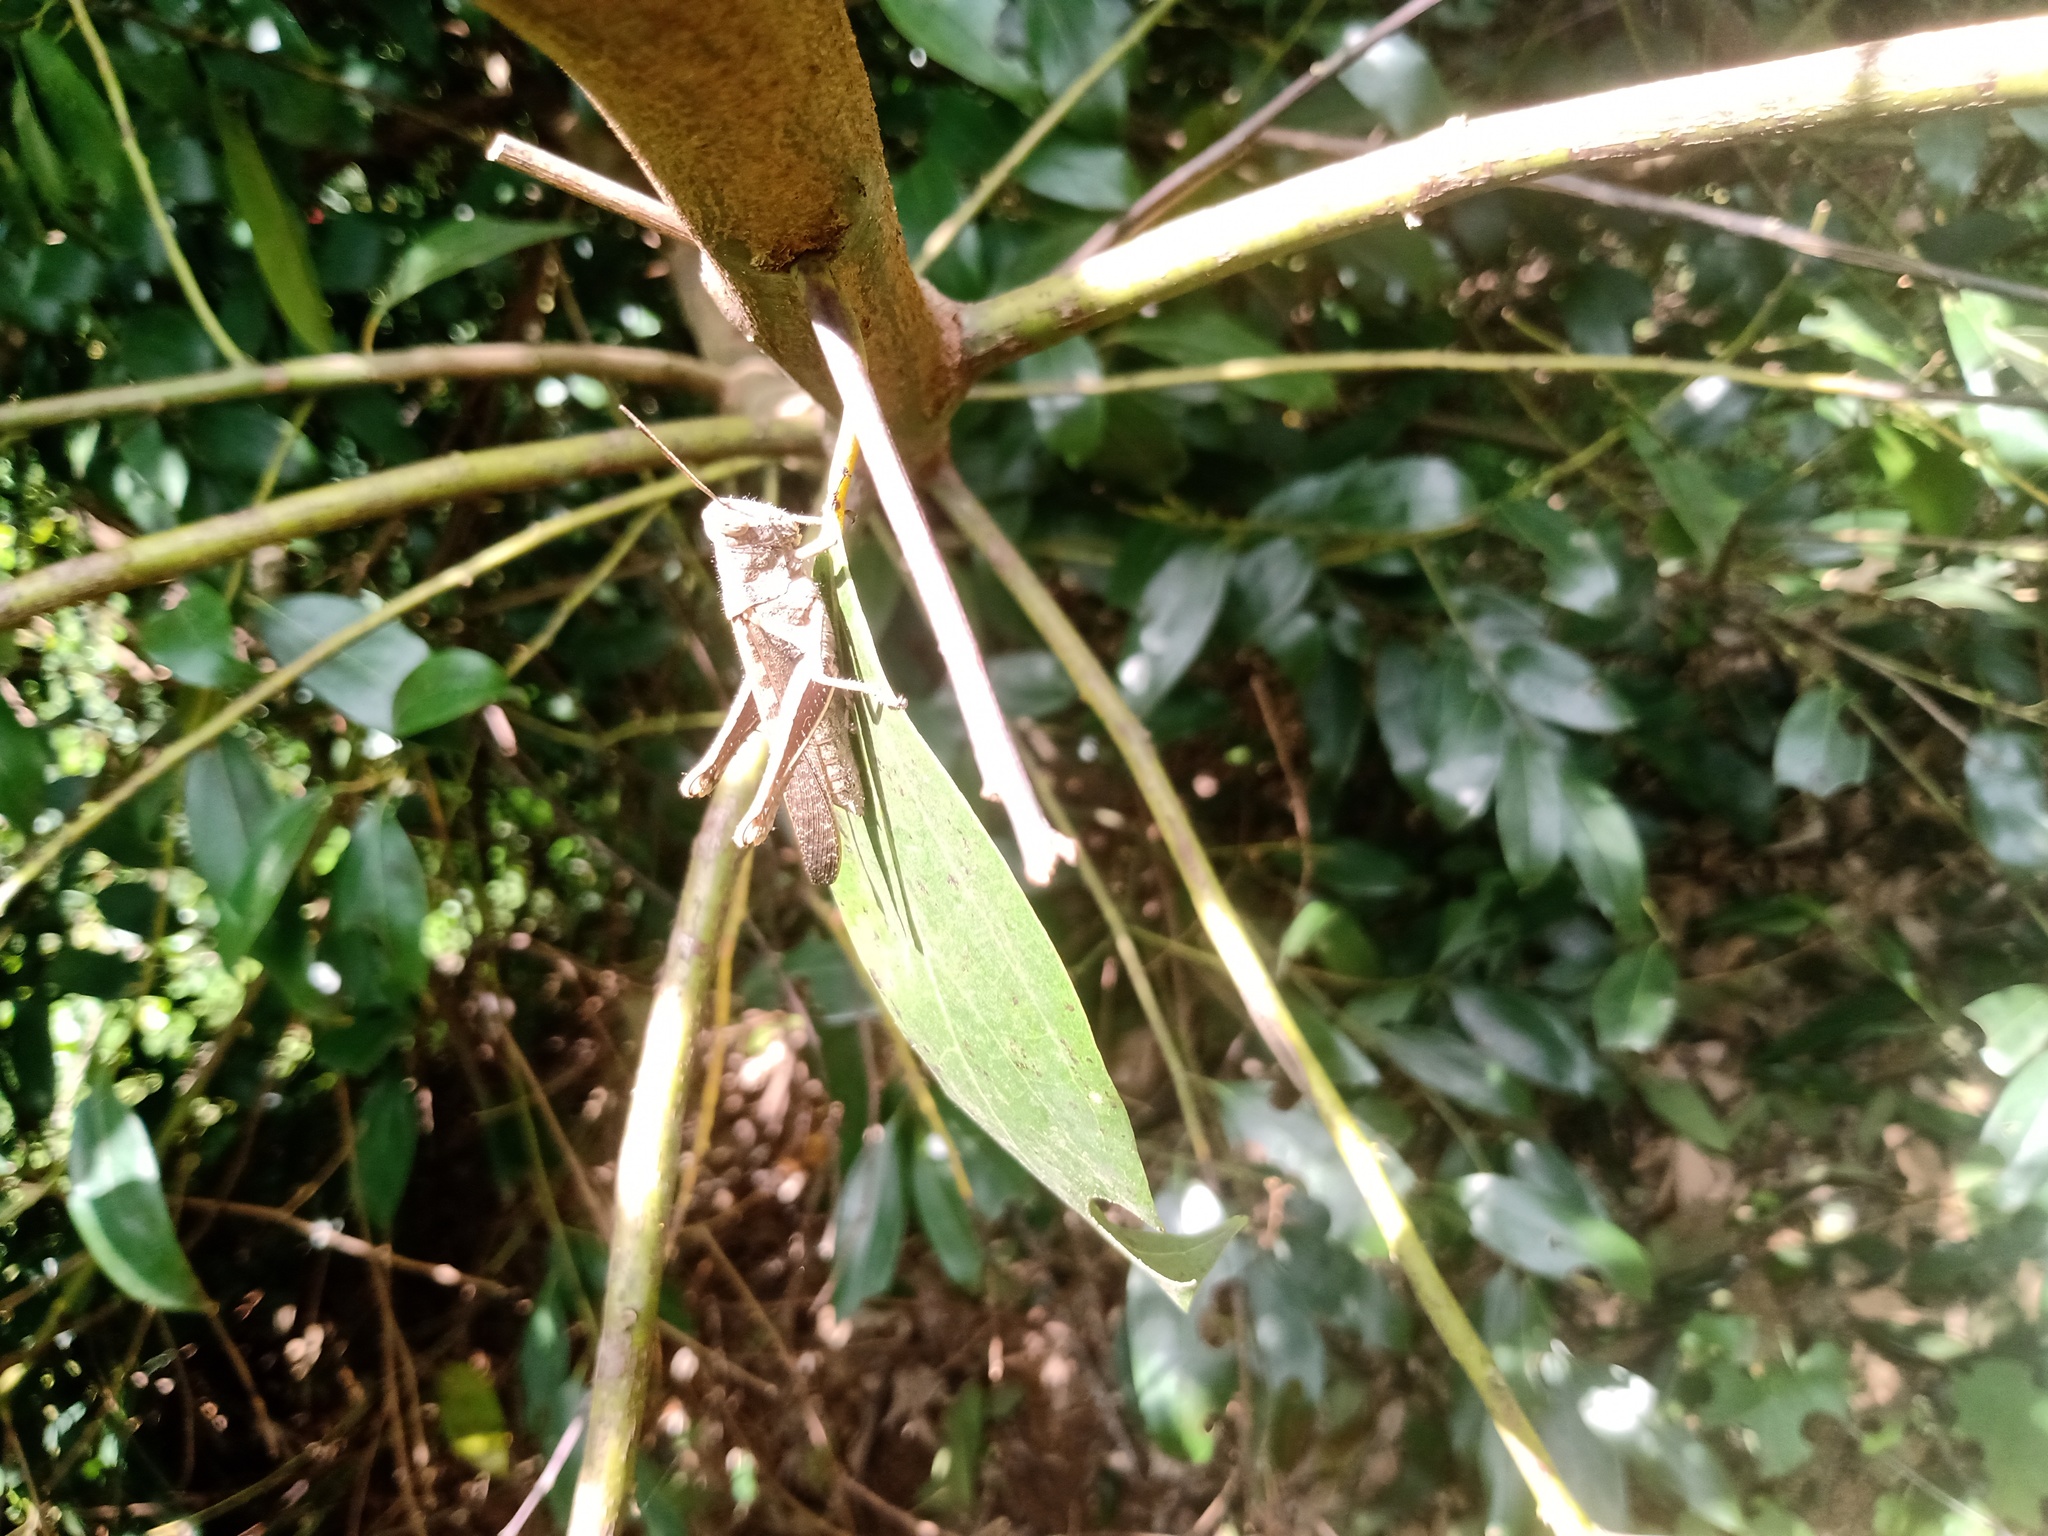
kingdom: Animalia
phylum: Arthropoda
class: Insecta
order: Orthoptera
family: Acrididae
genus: Abracris
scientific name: Abracris flavolineata
